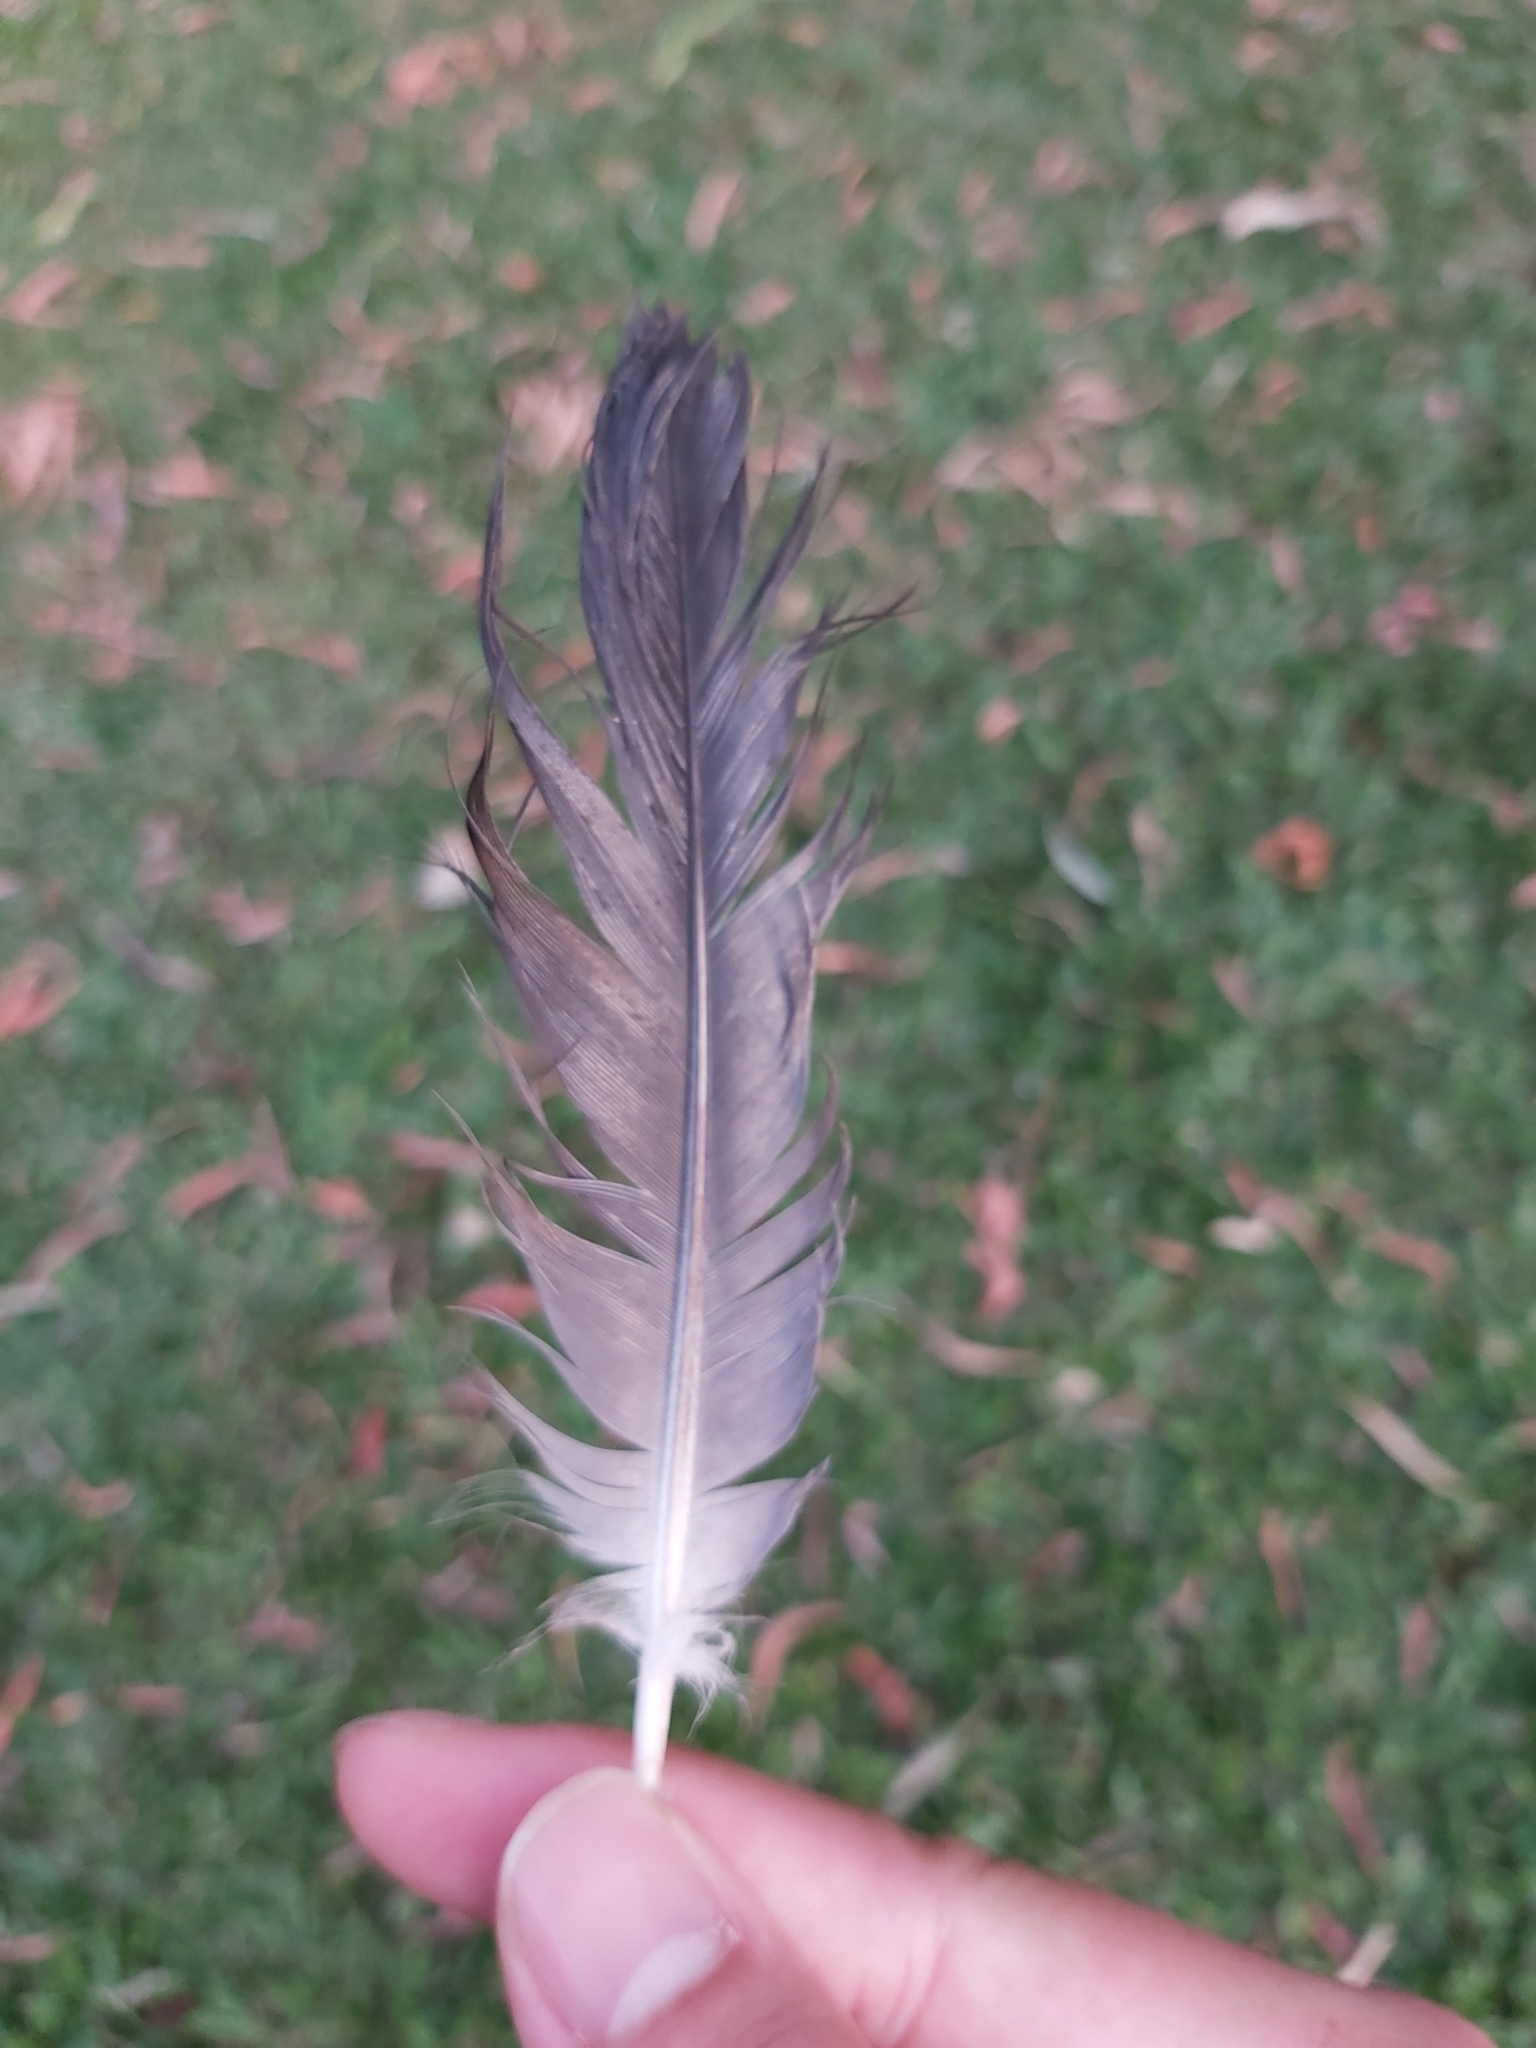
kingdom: Animalia
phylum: Chordata
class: Aves
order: Columbiformes
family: Columbidae
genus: Columba
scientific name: Columba livia
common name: Rock pigeon
